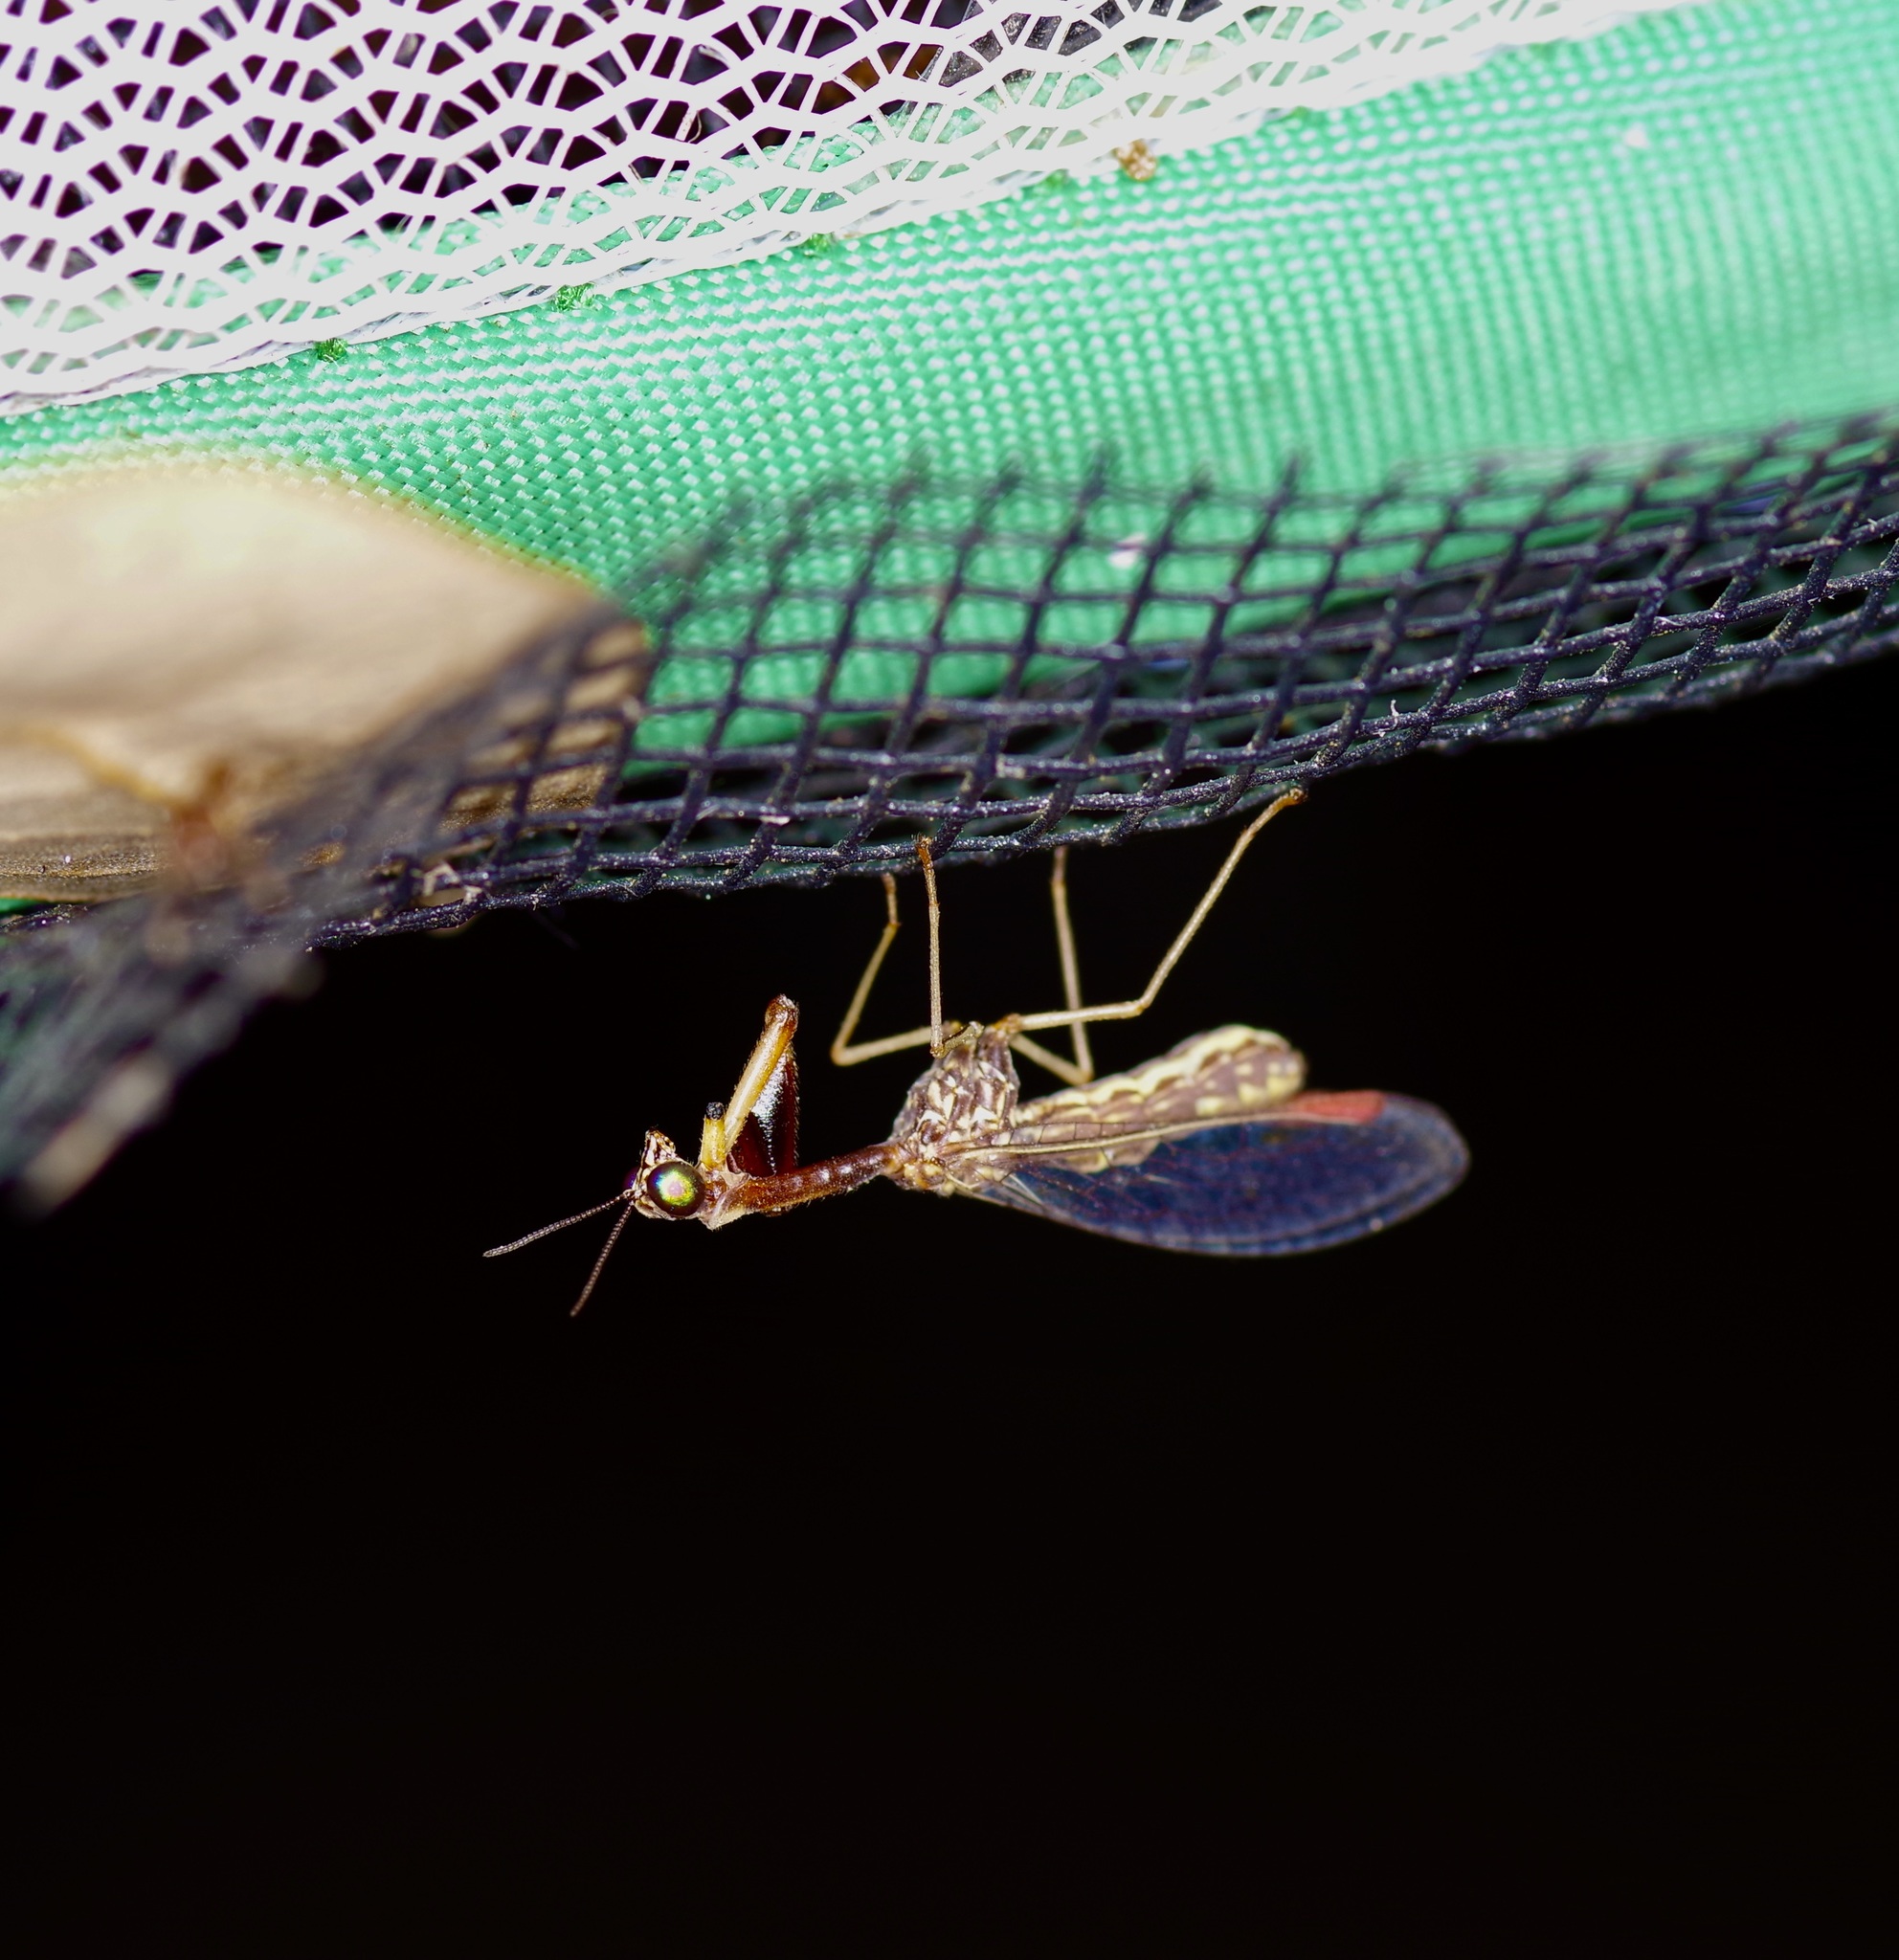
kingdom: Animalia
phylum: Arthropoda
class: Insecta
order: Neuroptera
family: Mantispidae
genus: Leptomantispa
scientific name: Leptomantispa pulchella
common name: Stevens's mantidfly
